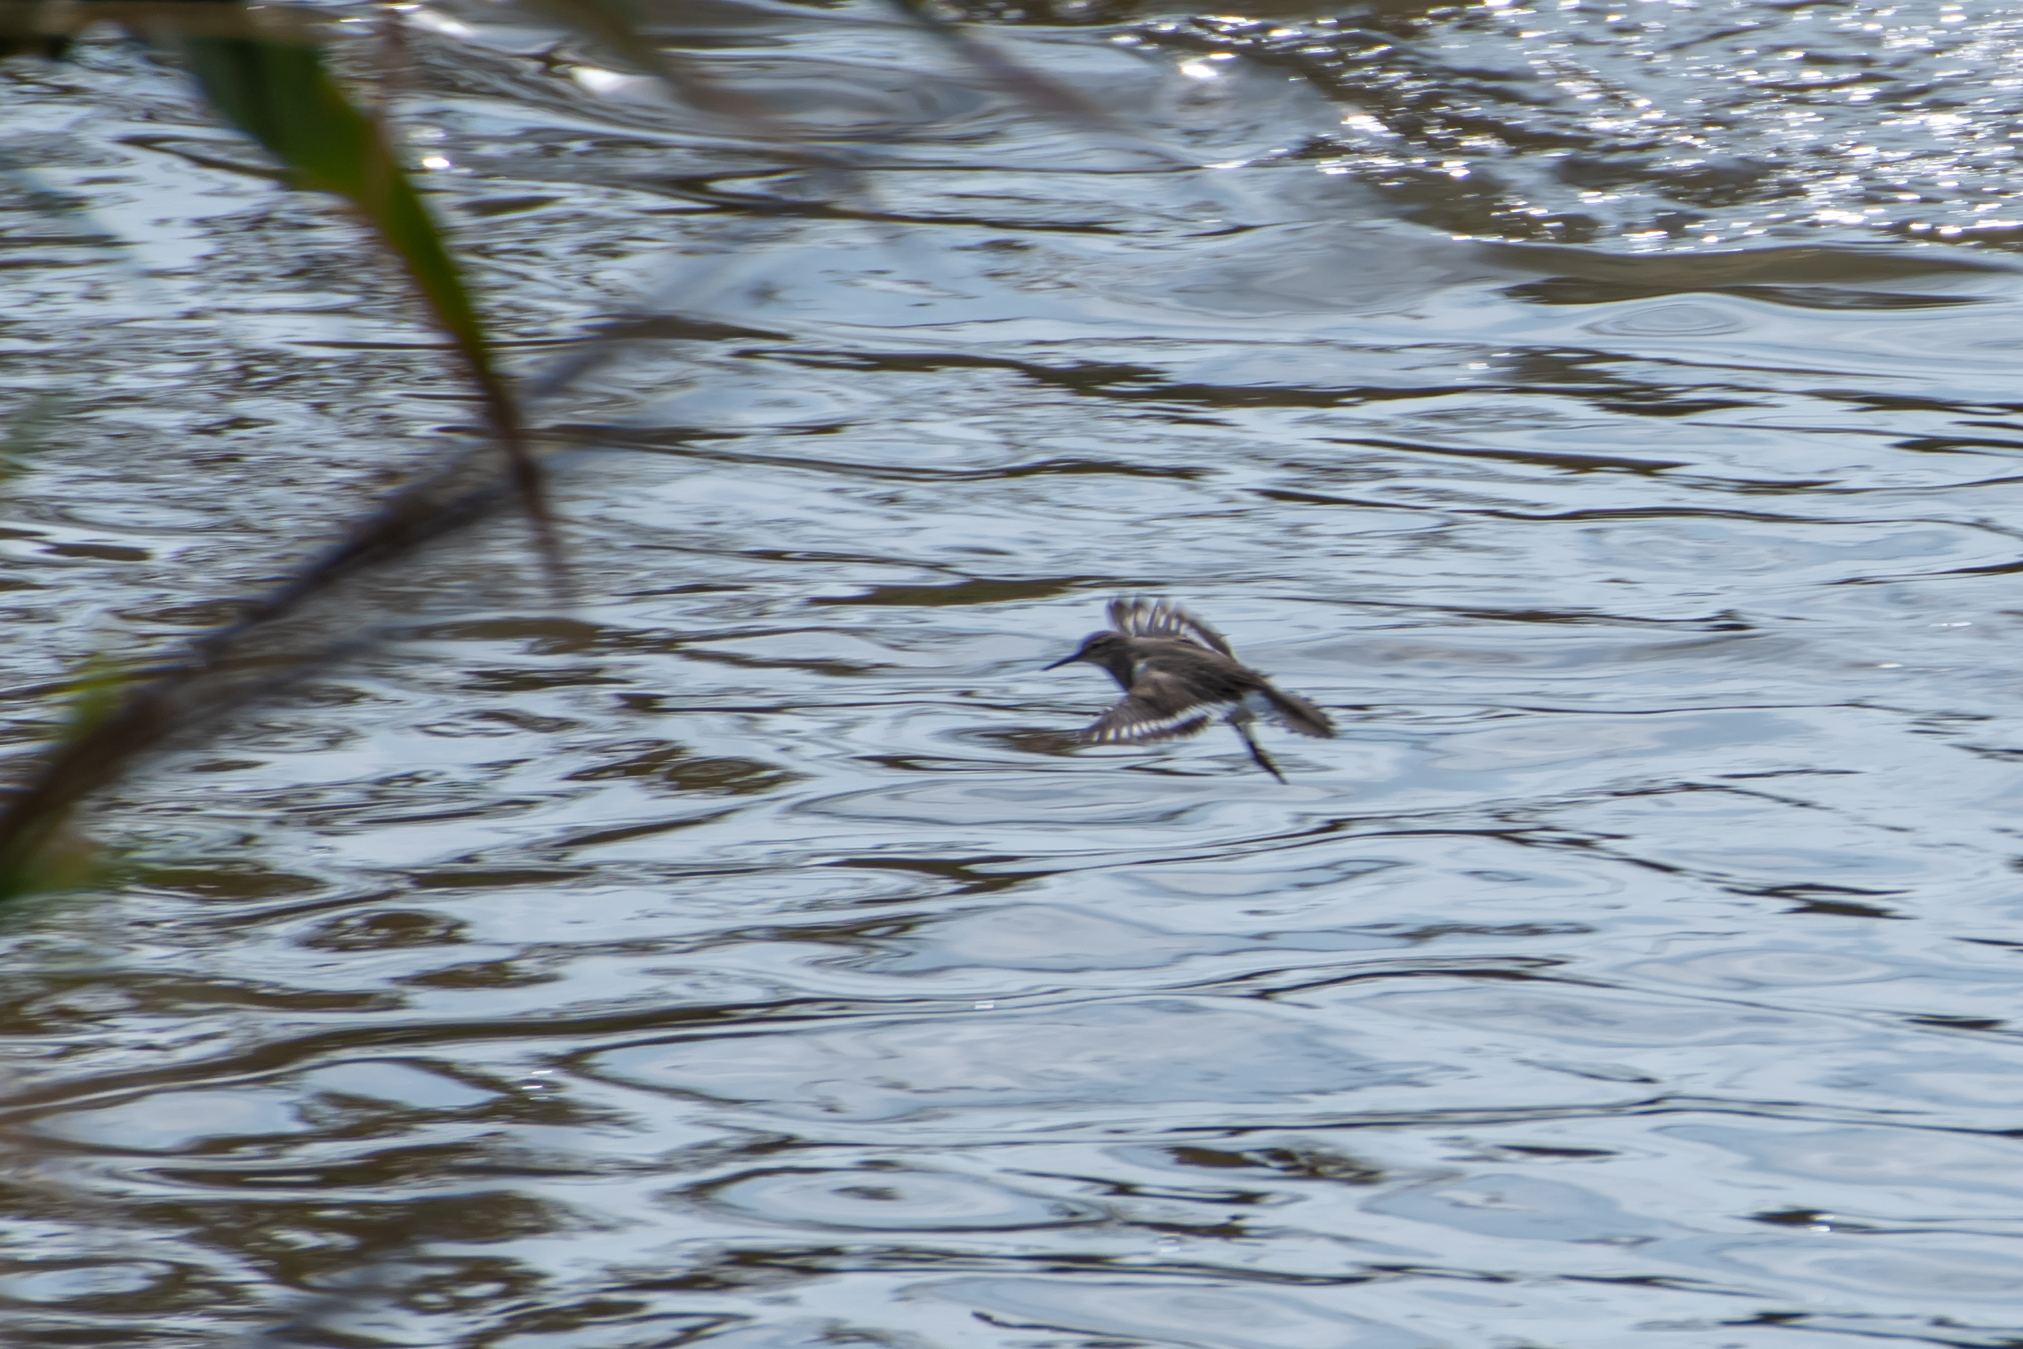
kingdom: Animalia
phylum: Chordata
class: Aves
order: Charadriiformes
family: Scolopacidae
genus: Actitis
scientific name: Actitis hypoleucos
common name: Common sandpiper
